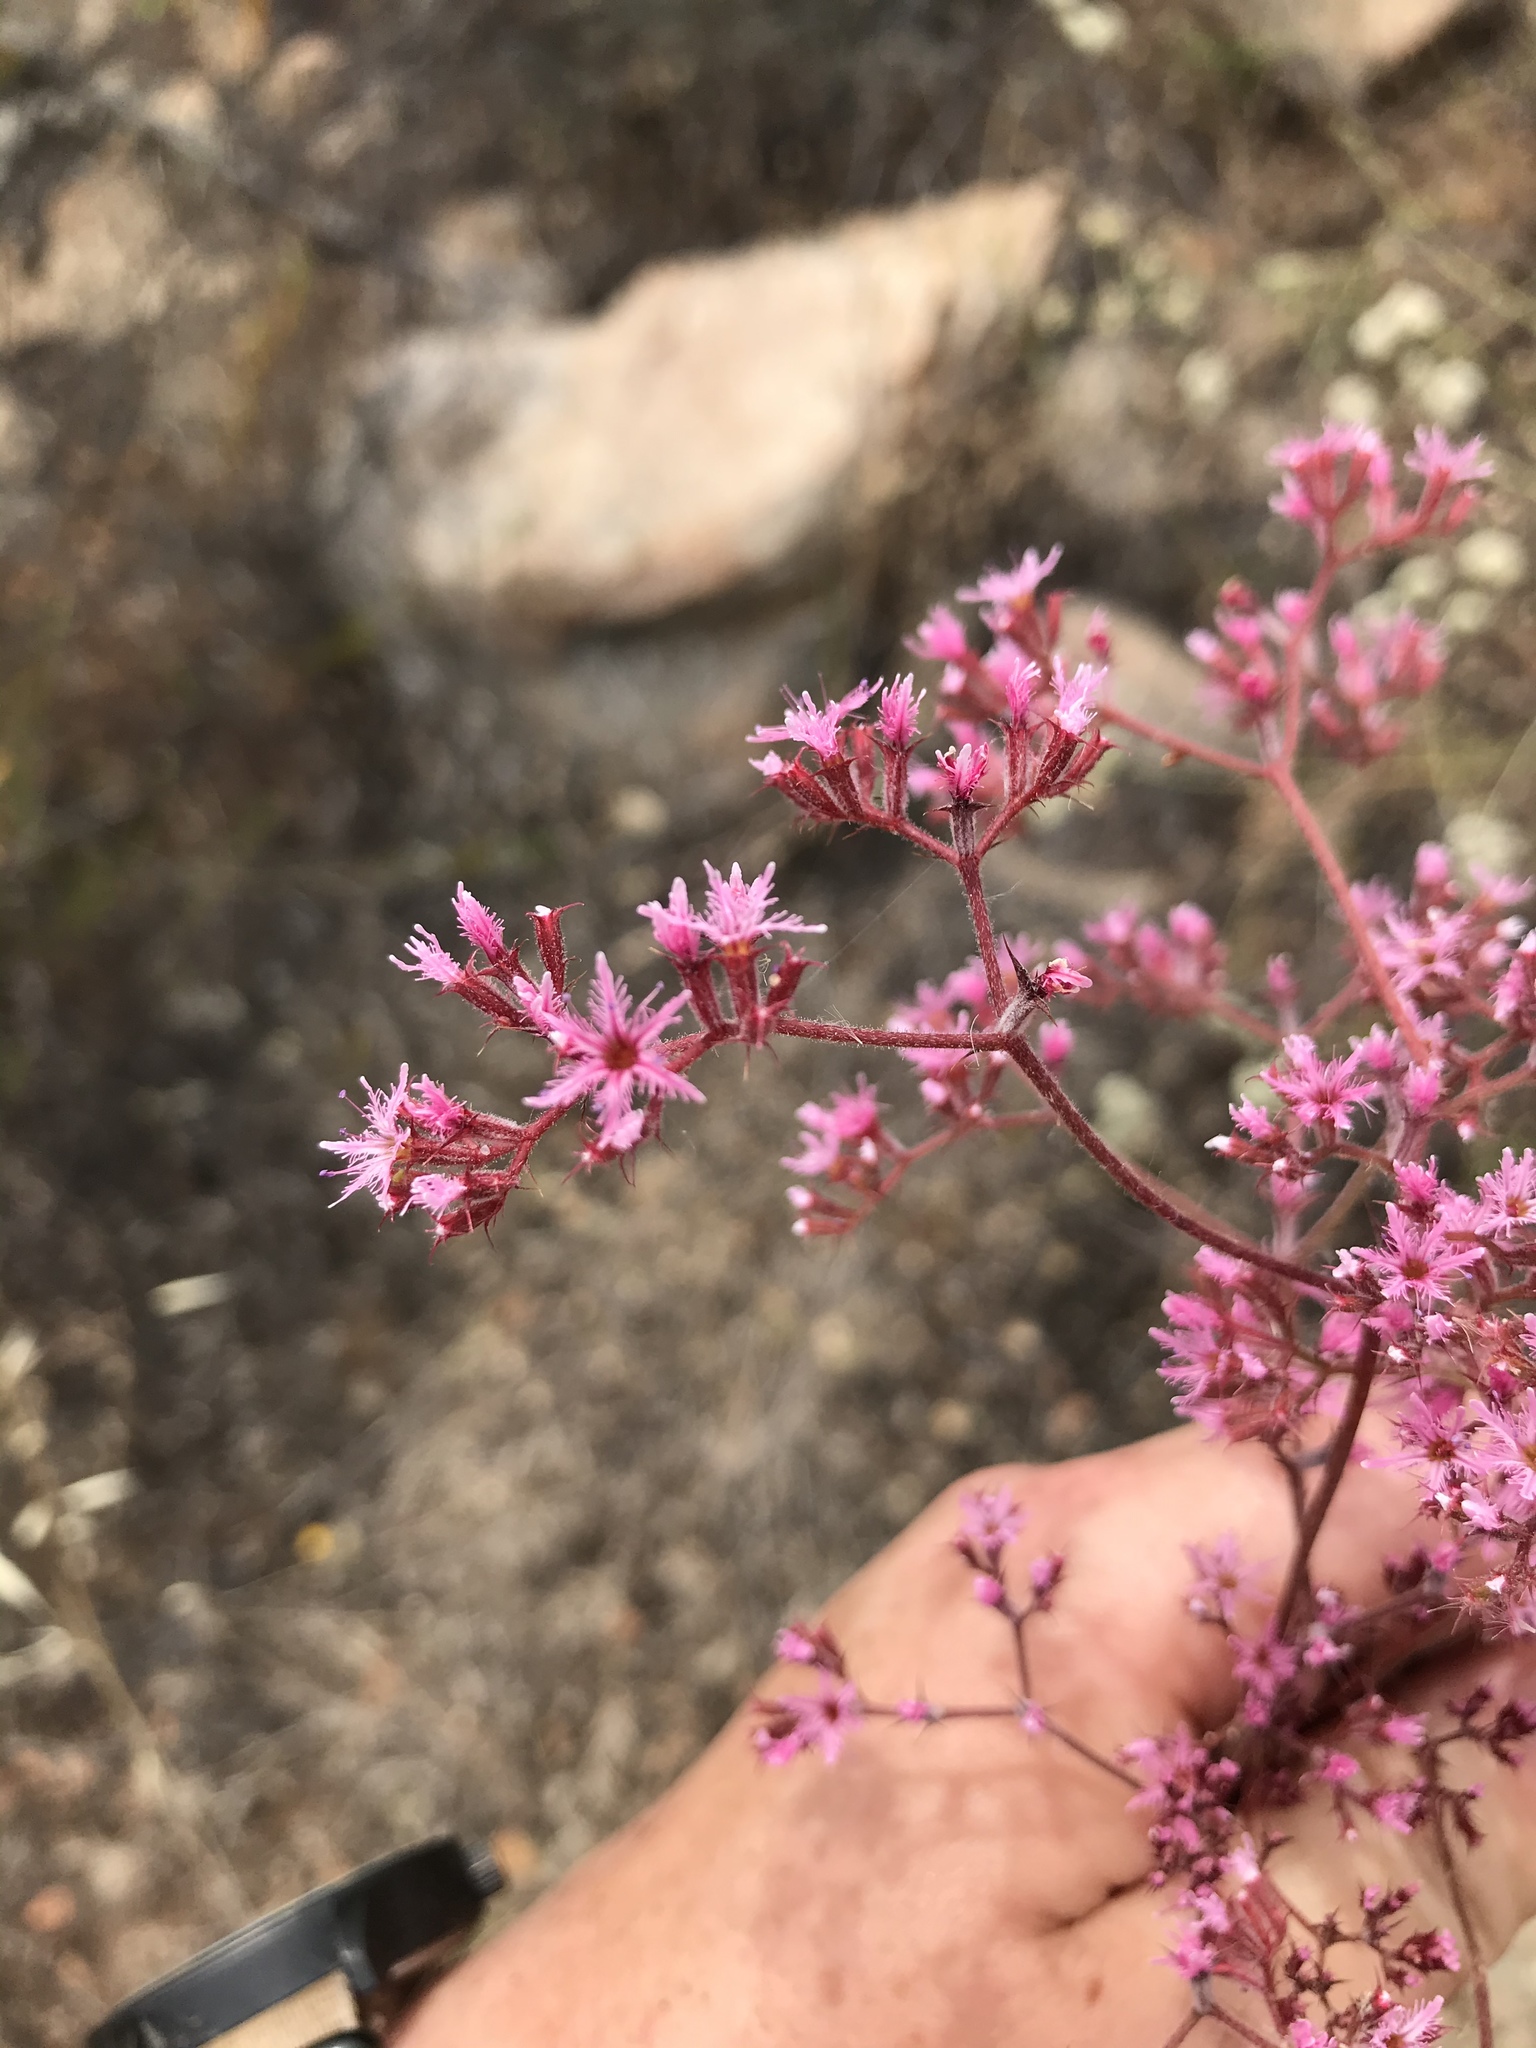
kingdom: Plantae
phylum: Tracheophyta
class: Magnoliopsida
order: Caryophyllales
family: Polygonaceae
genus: Chorizanthe
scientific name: Chorizanthe fimbriata
